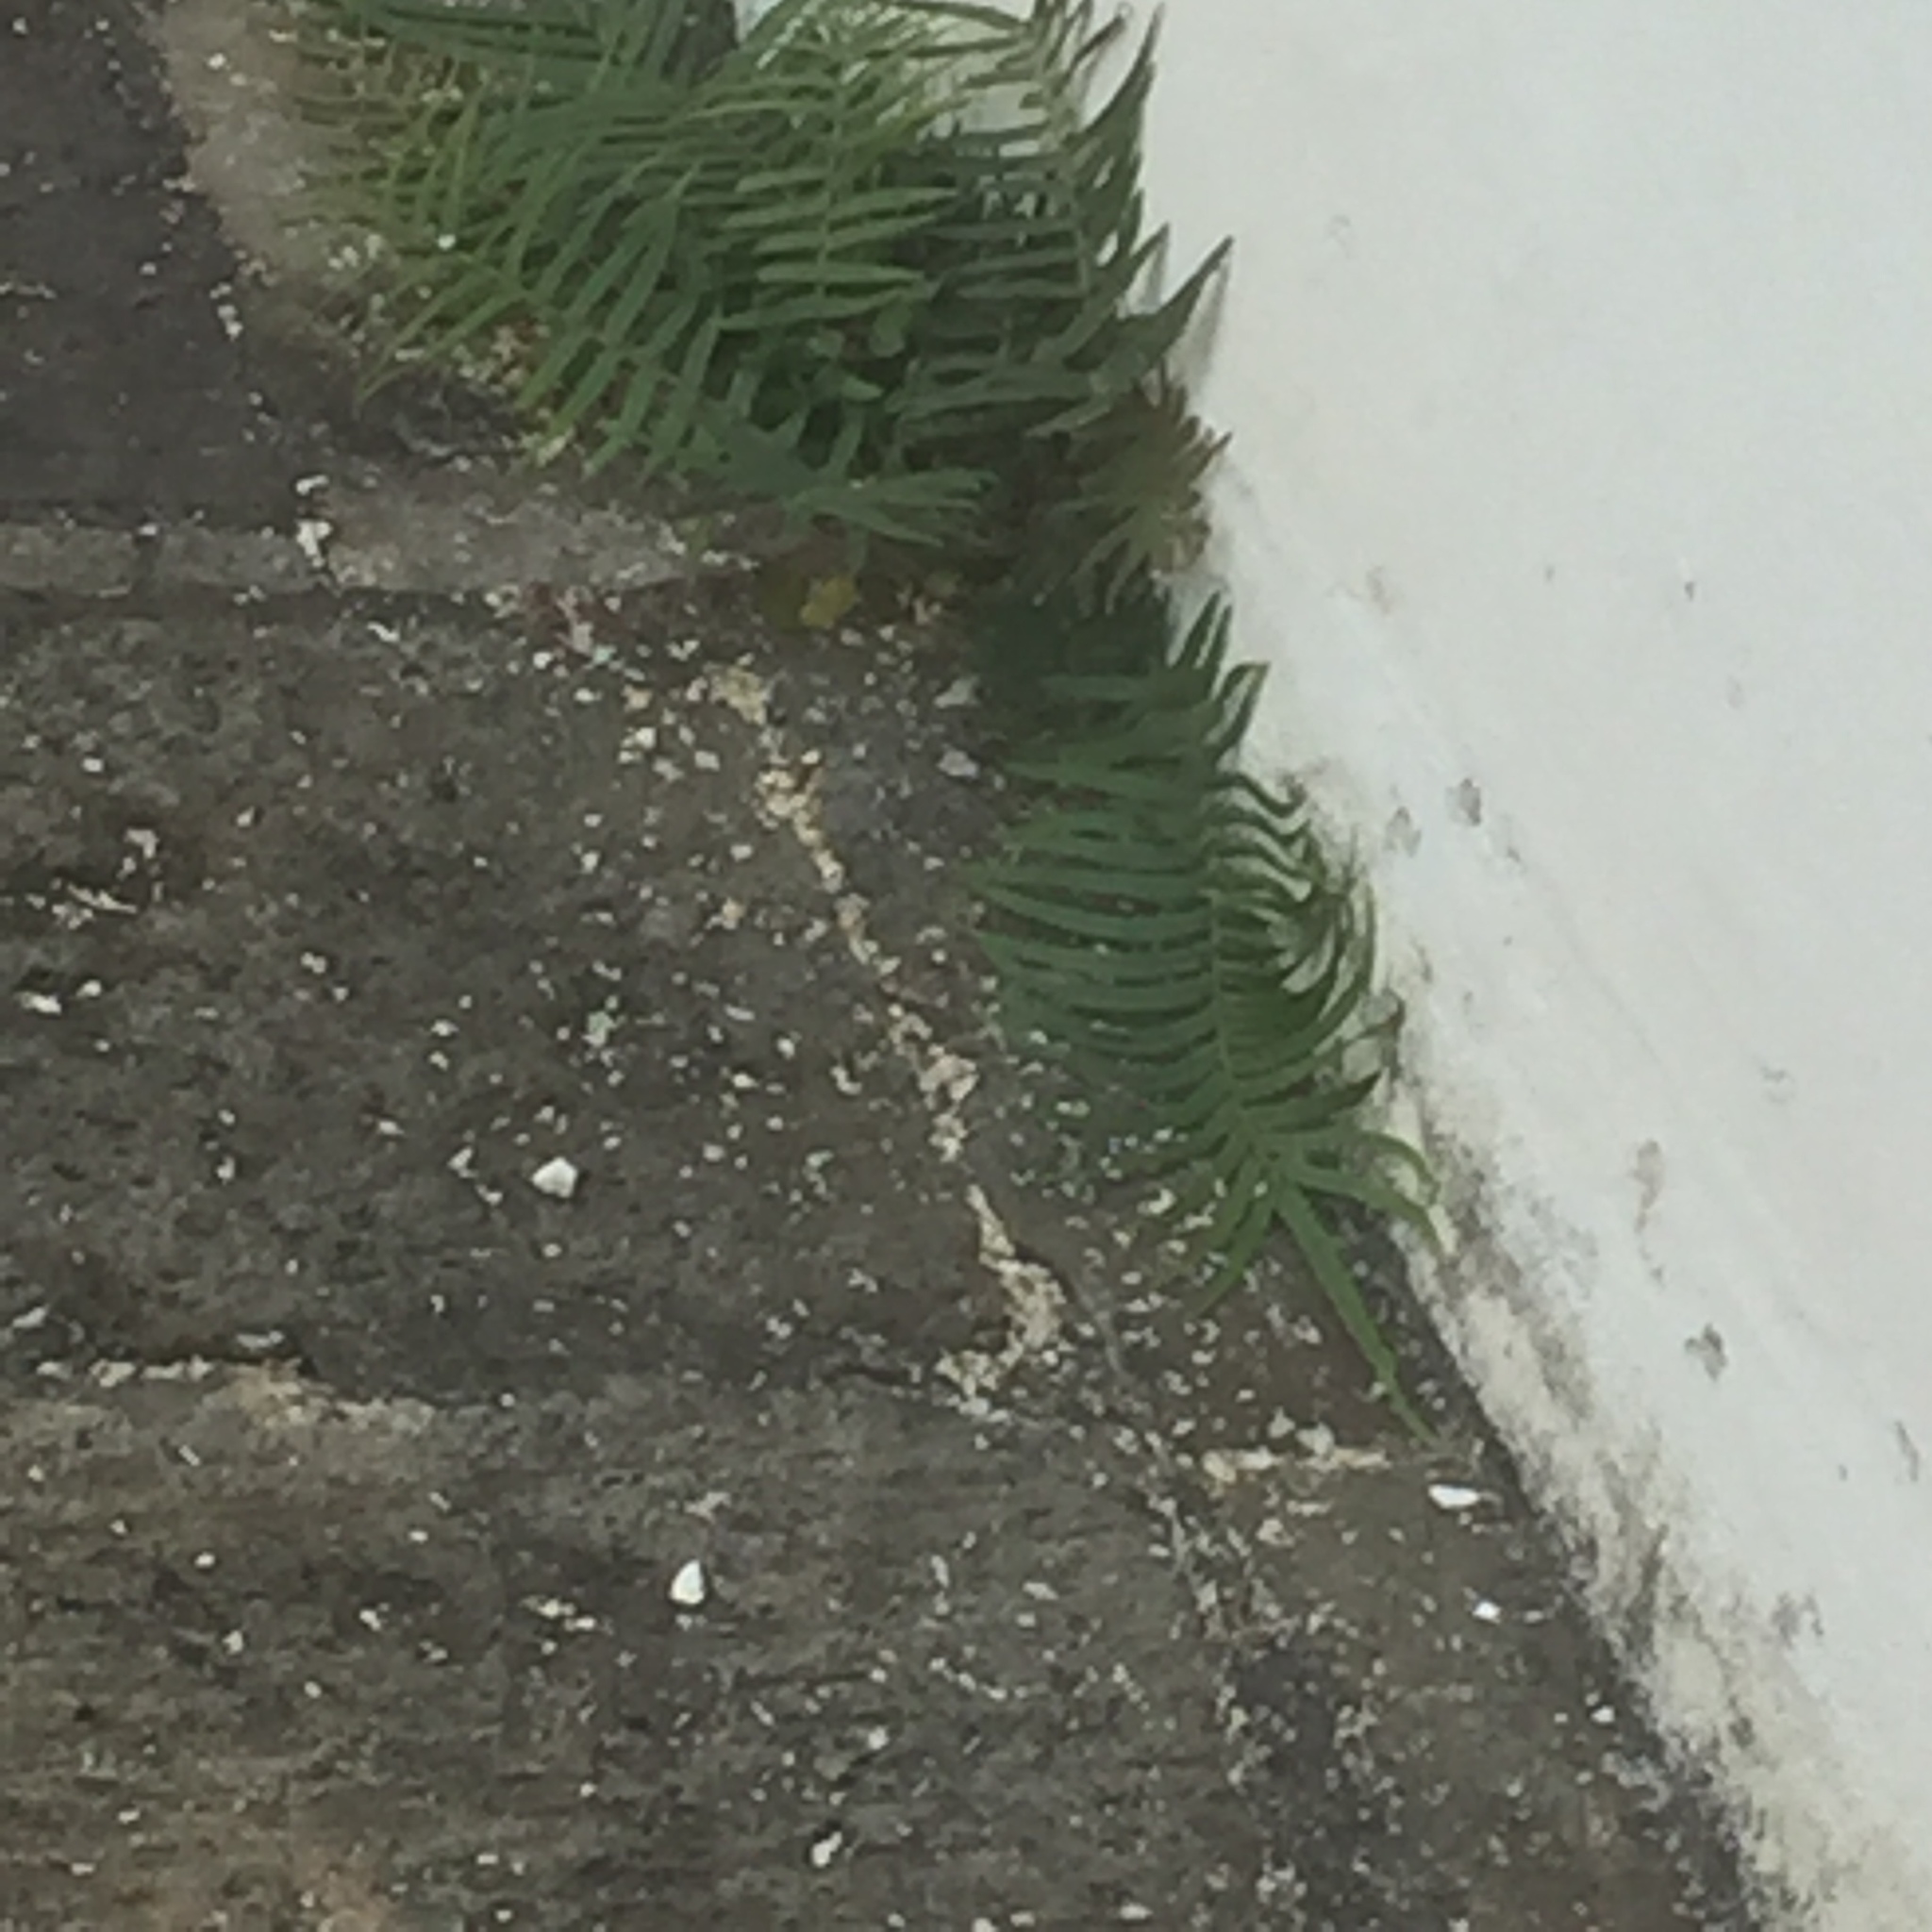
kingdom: Plantae
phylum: Tracheophyta
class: Polypodiopsida
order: Polypodiales
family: Pteridaceae
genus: Pteris
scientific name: Pteris vittata
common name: Ladder brake
